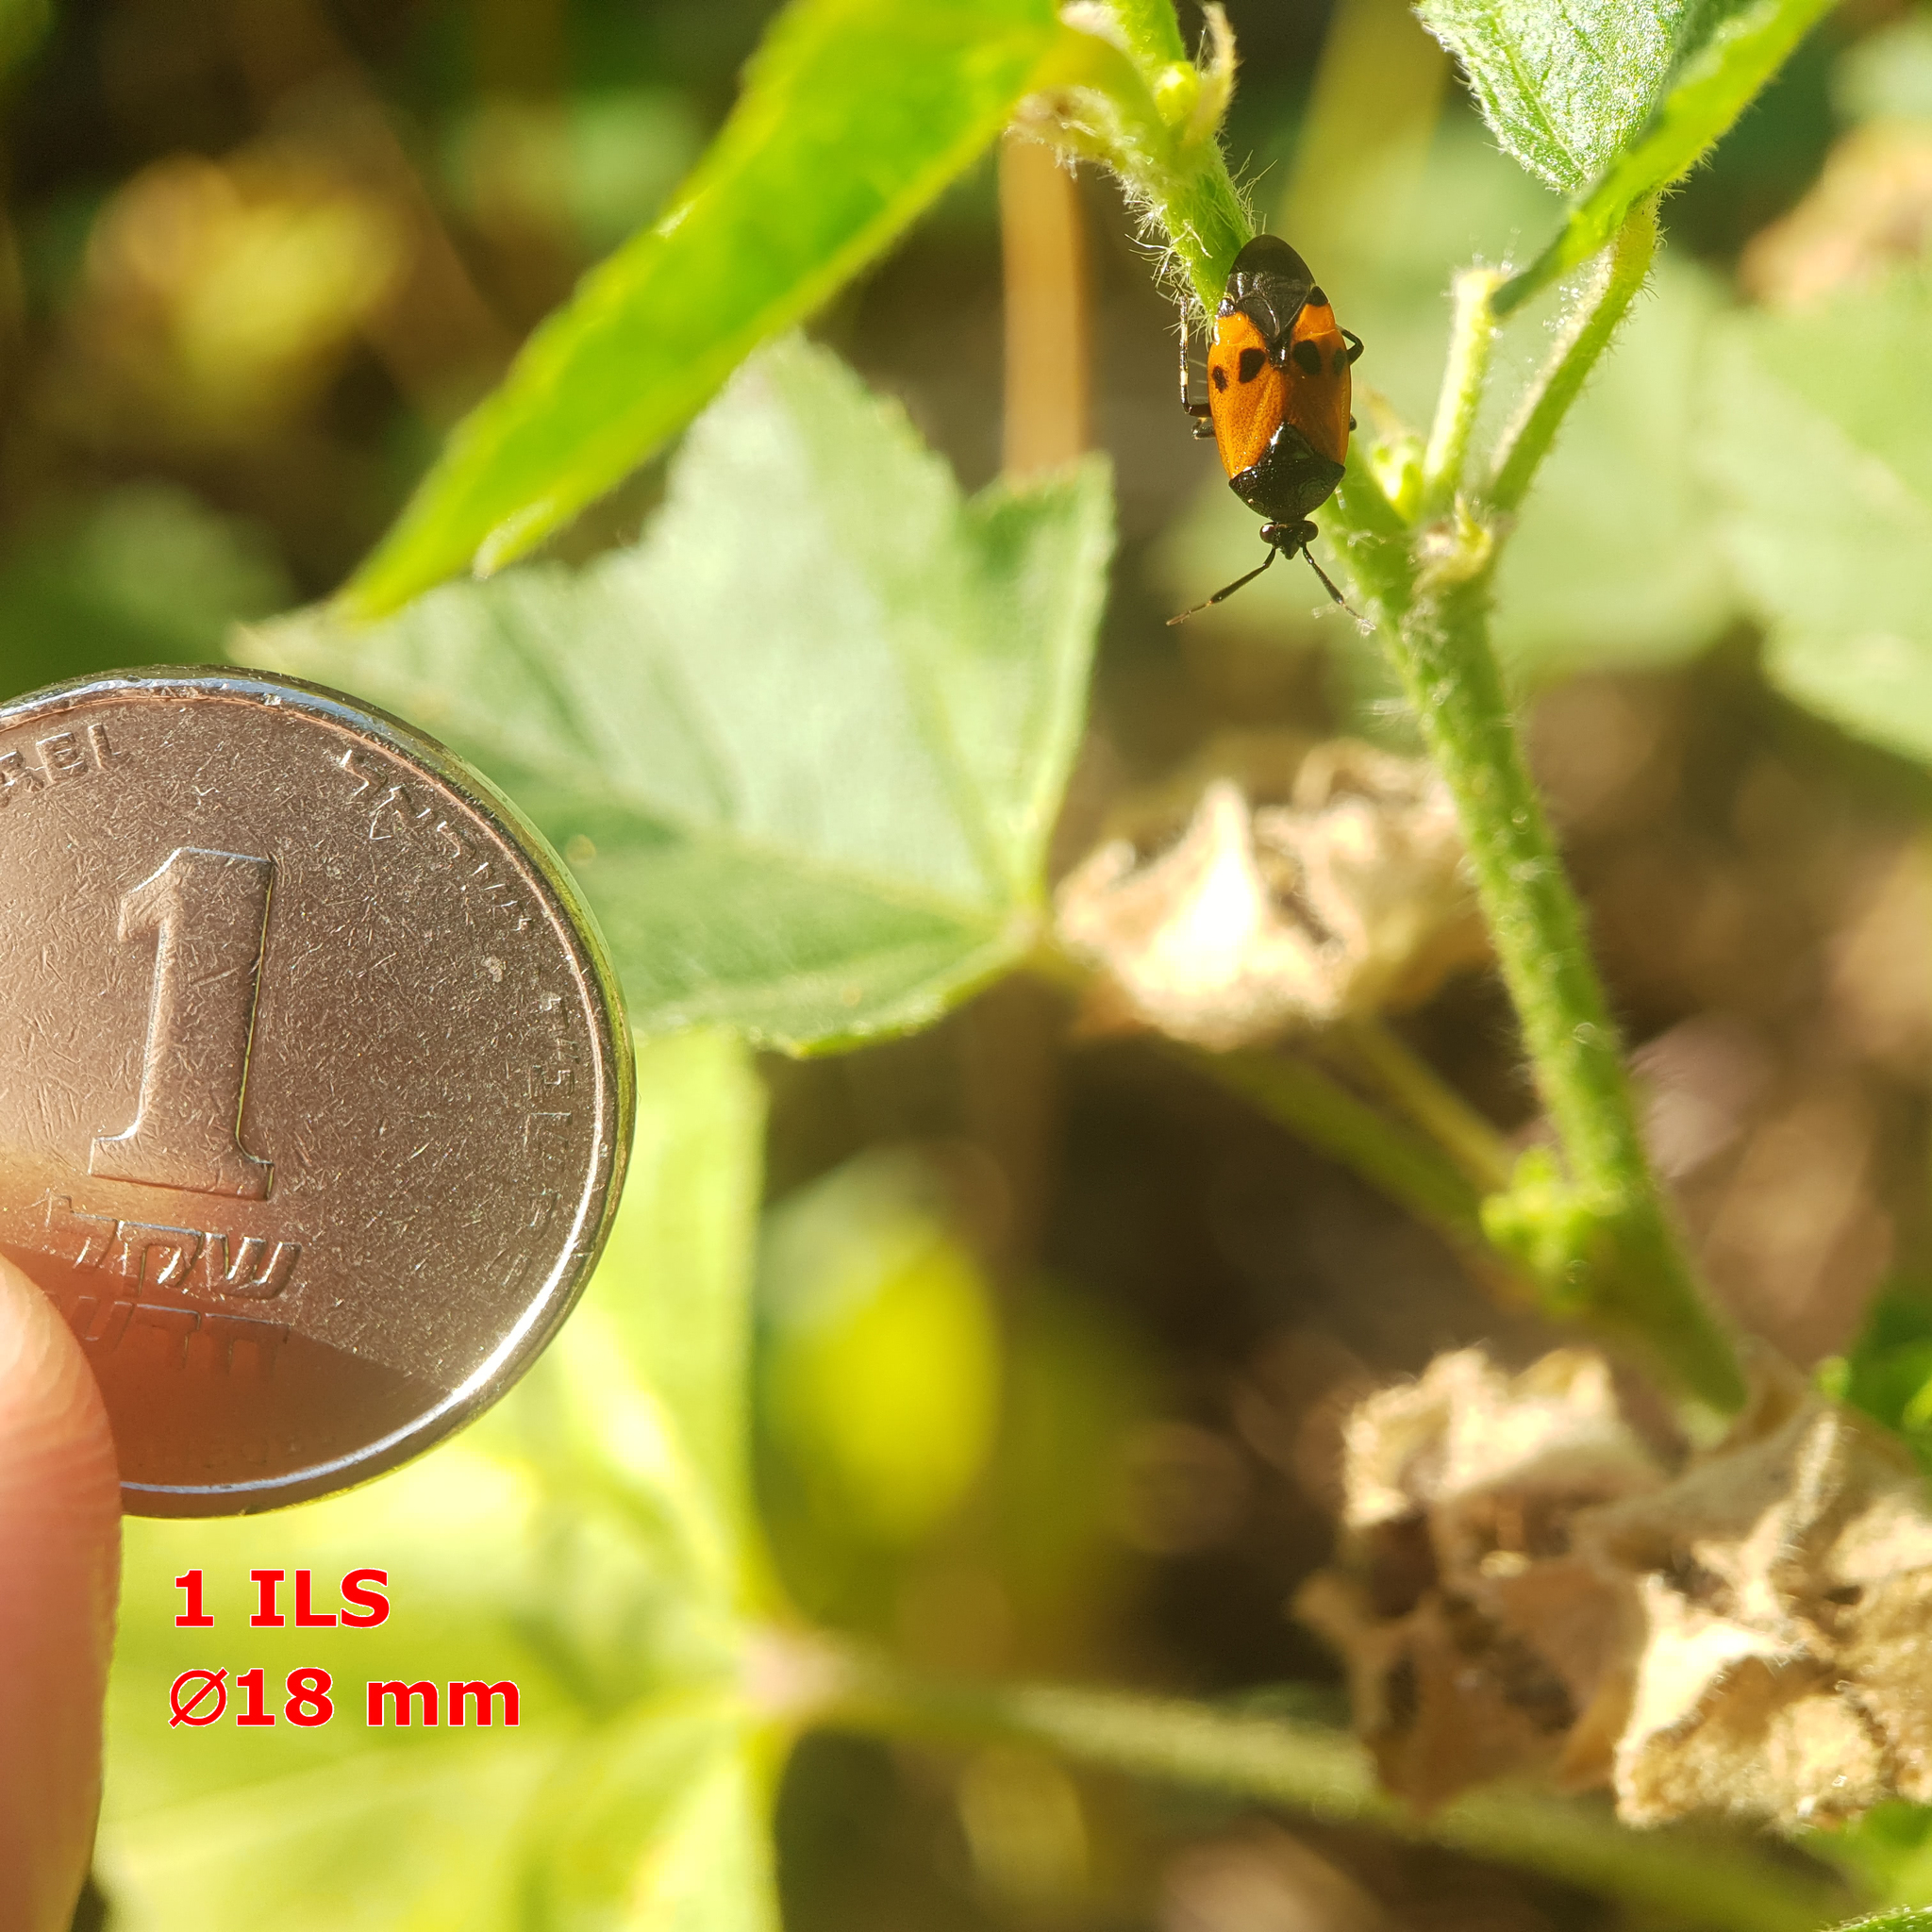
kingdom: Animalia
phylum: Arthropoda
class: Insecta
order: Hemiptera
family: Miridae
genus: Deraeocoris
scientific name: Deraeocoris rutilus
